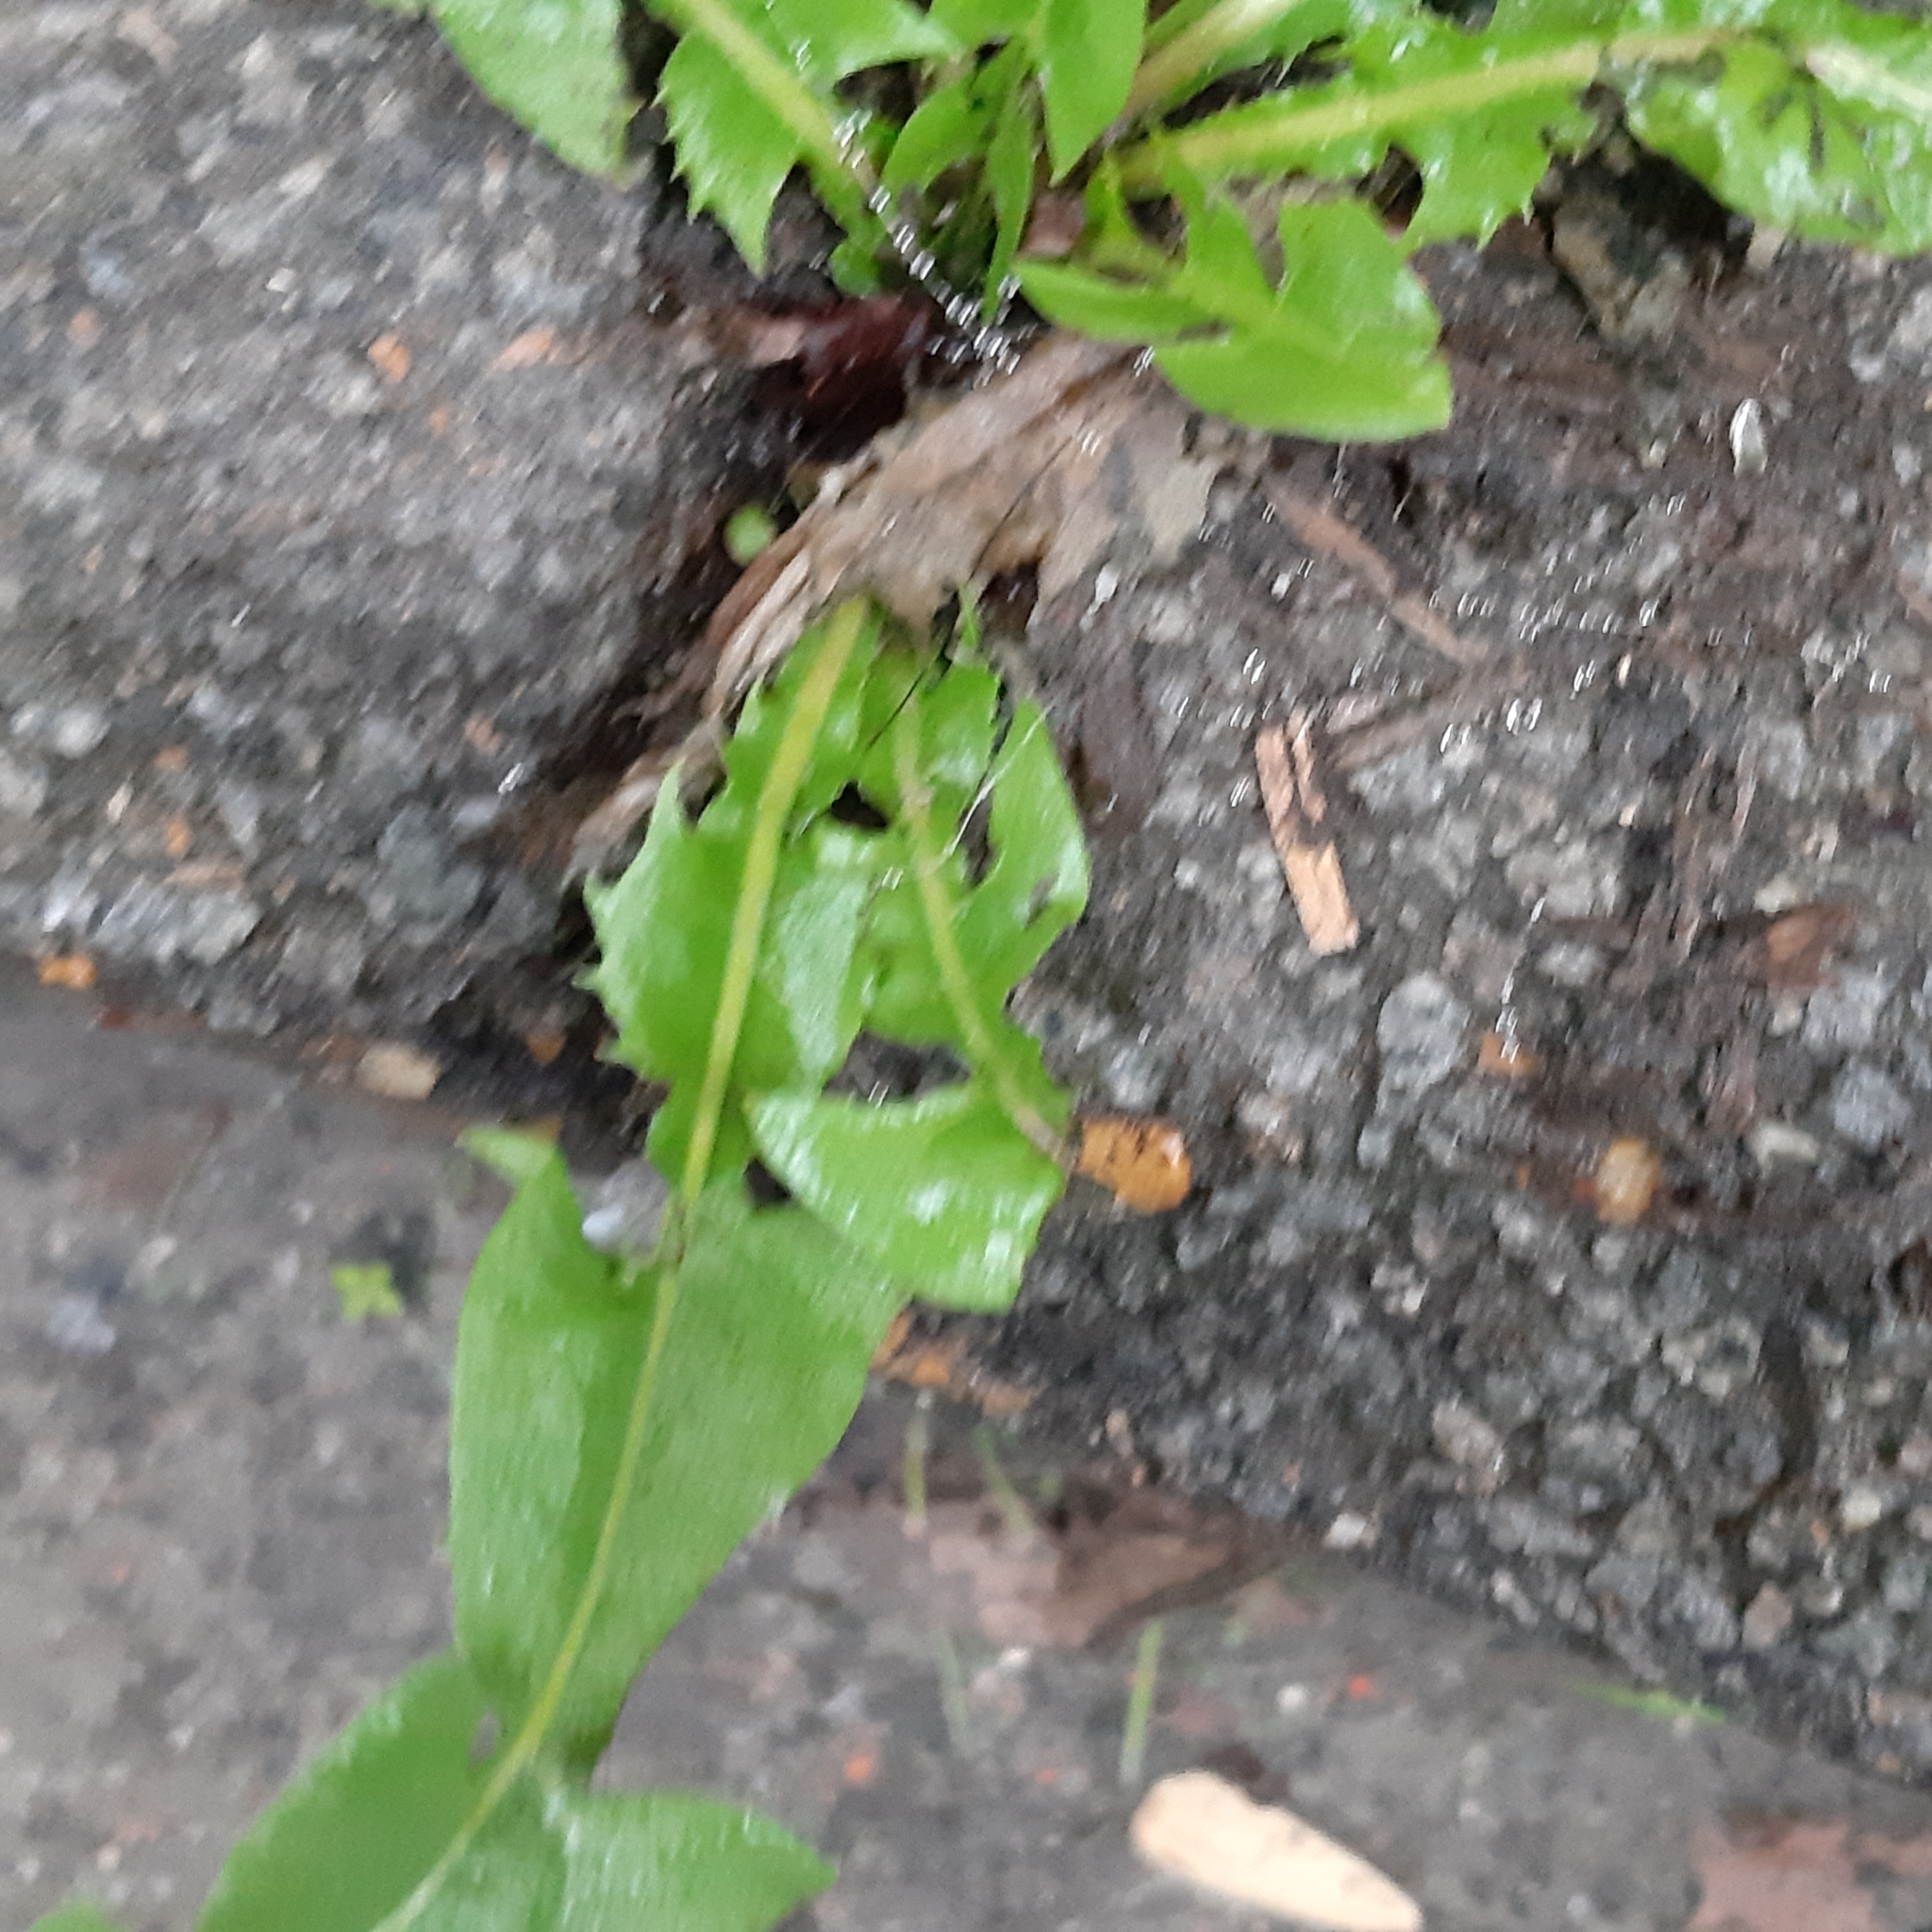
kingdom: Plantae
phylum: Tracheophyta
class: Magnoliopsida
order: Asterales
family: Asteraceae
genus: Taraxacum
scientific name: Taraxacum officinale
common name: Common dandelion
